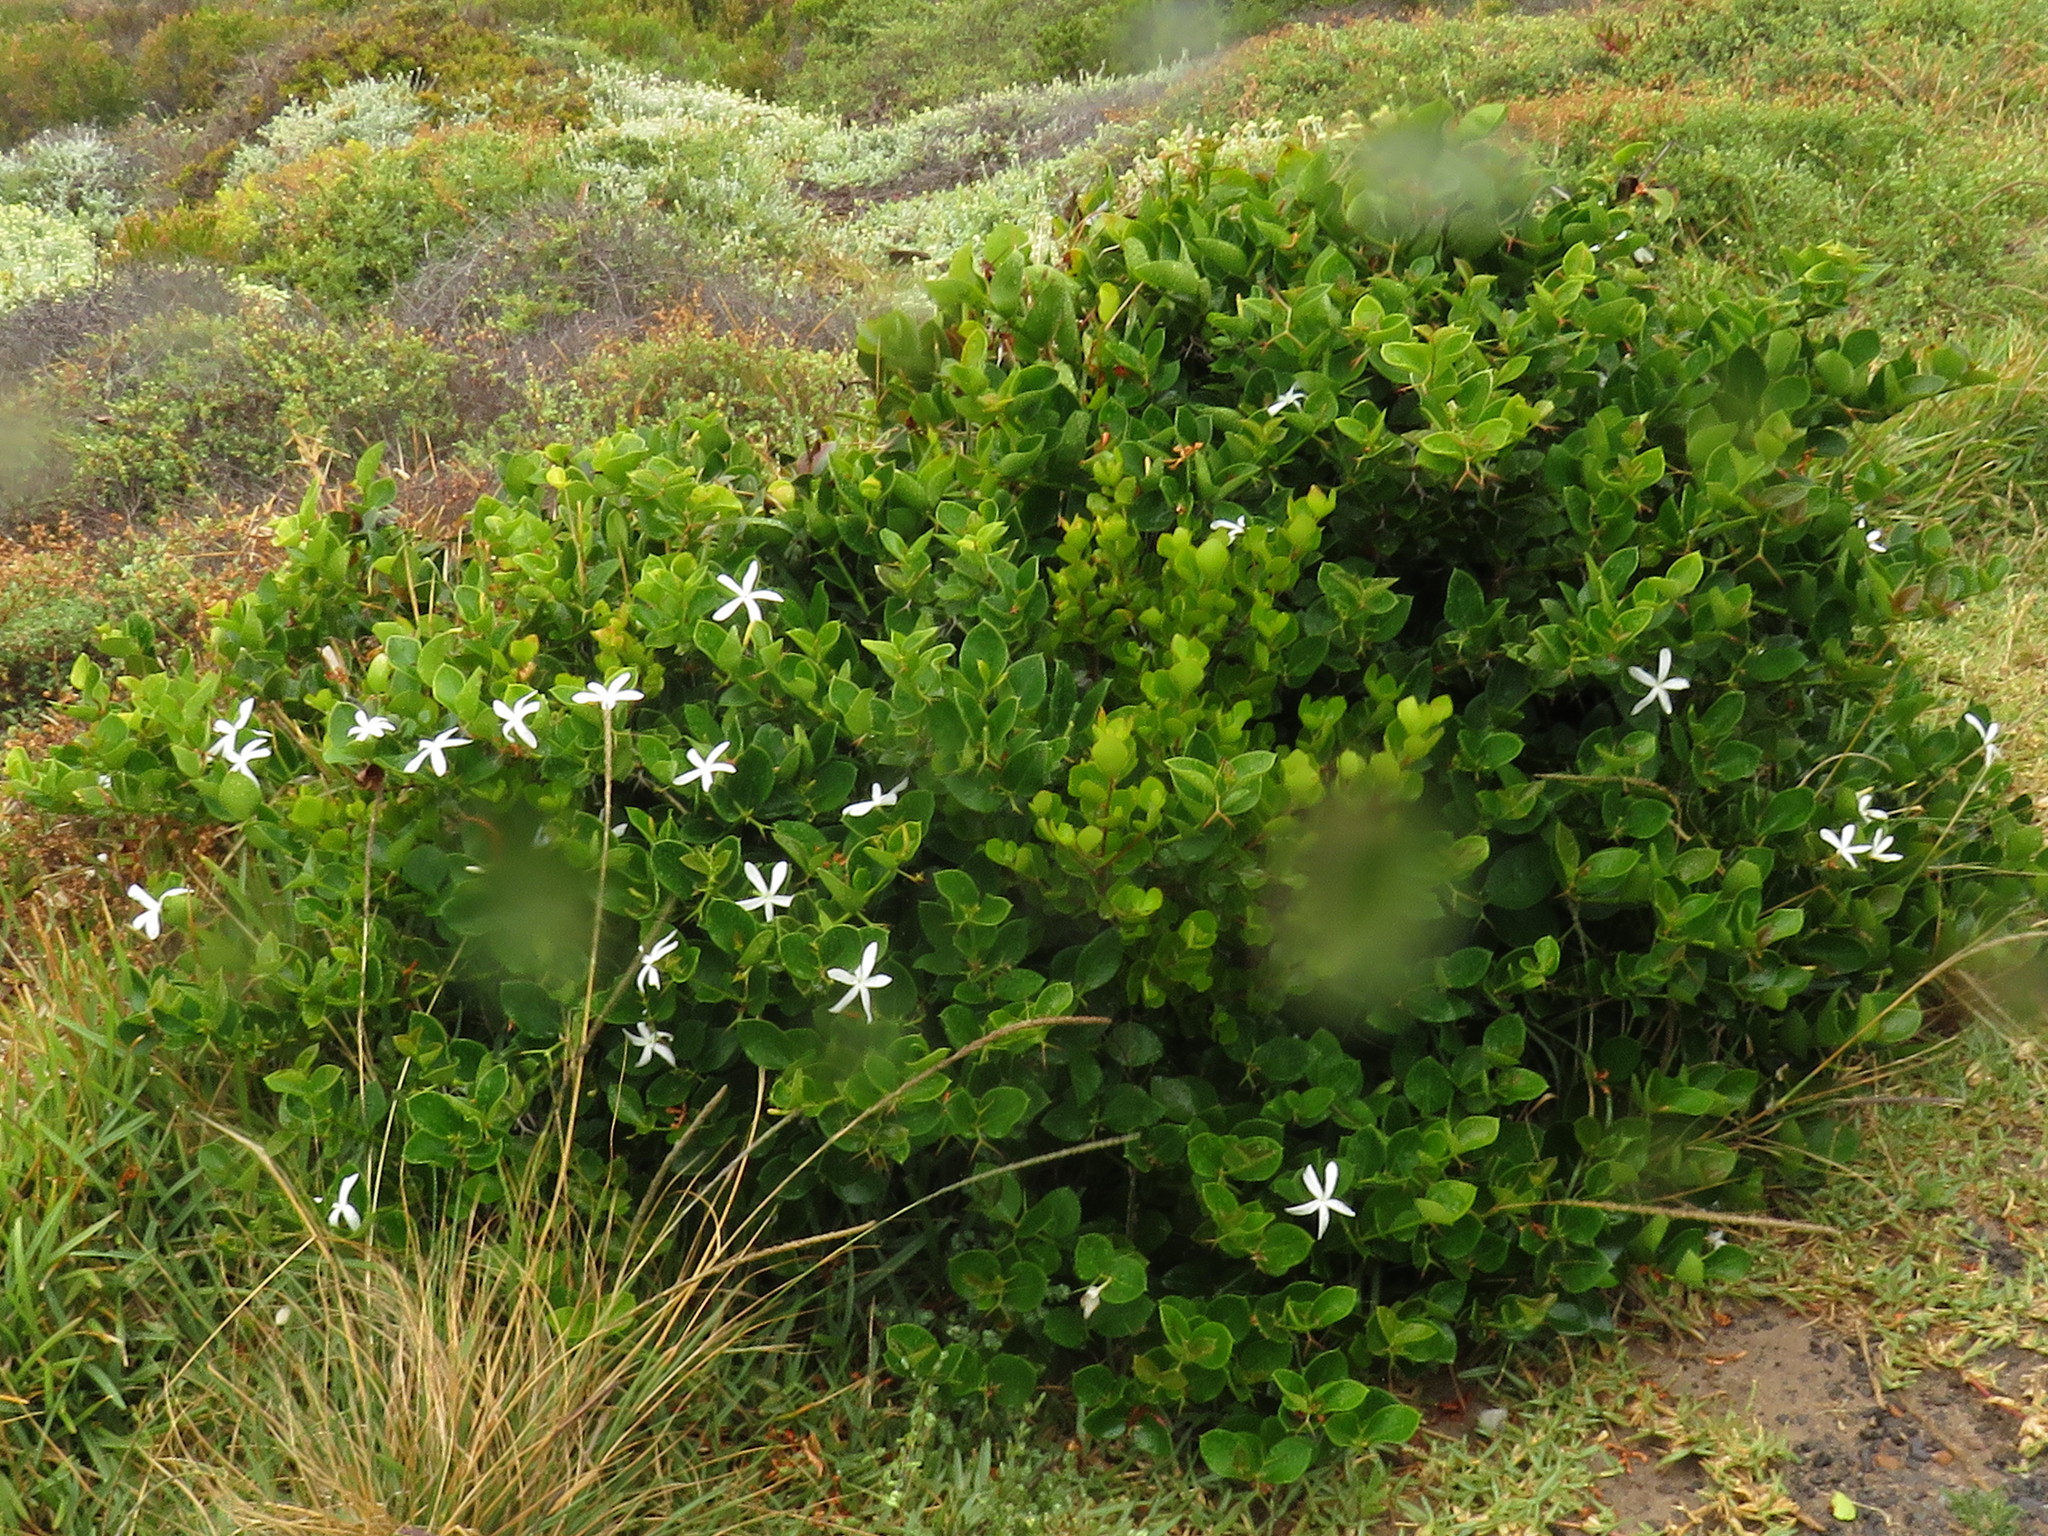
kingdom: Plantae
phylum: Tracheophyta
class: Magnoliopsida
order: Gentianales
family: Apocynaceae
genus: Carissa
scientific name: Carissa macrocarpa
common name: Natal plum
